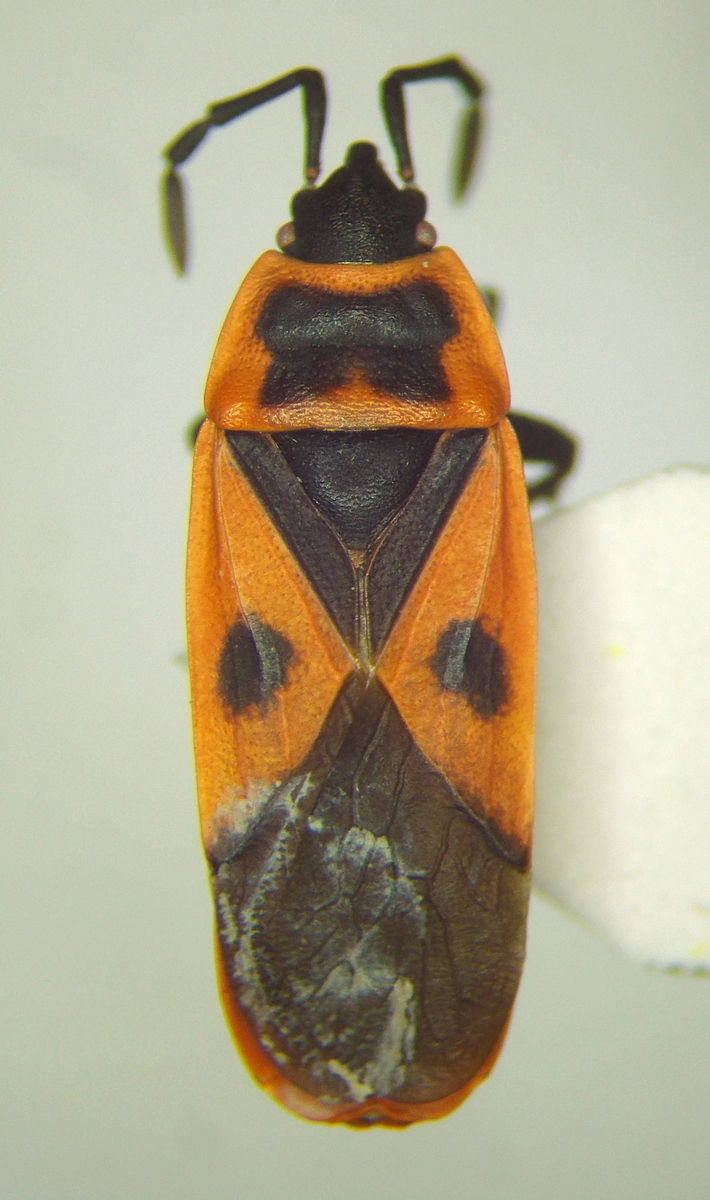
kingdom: Animalia
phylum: Arthropoda
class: Insecta
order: Hemiptera
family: Pyrrhocoridae
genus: Scantius
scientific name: Scantius aegyptius
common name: Red bug
